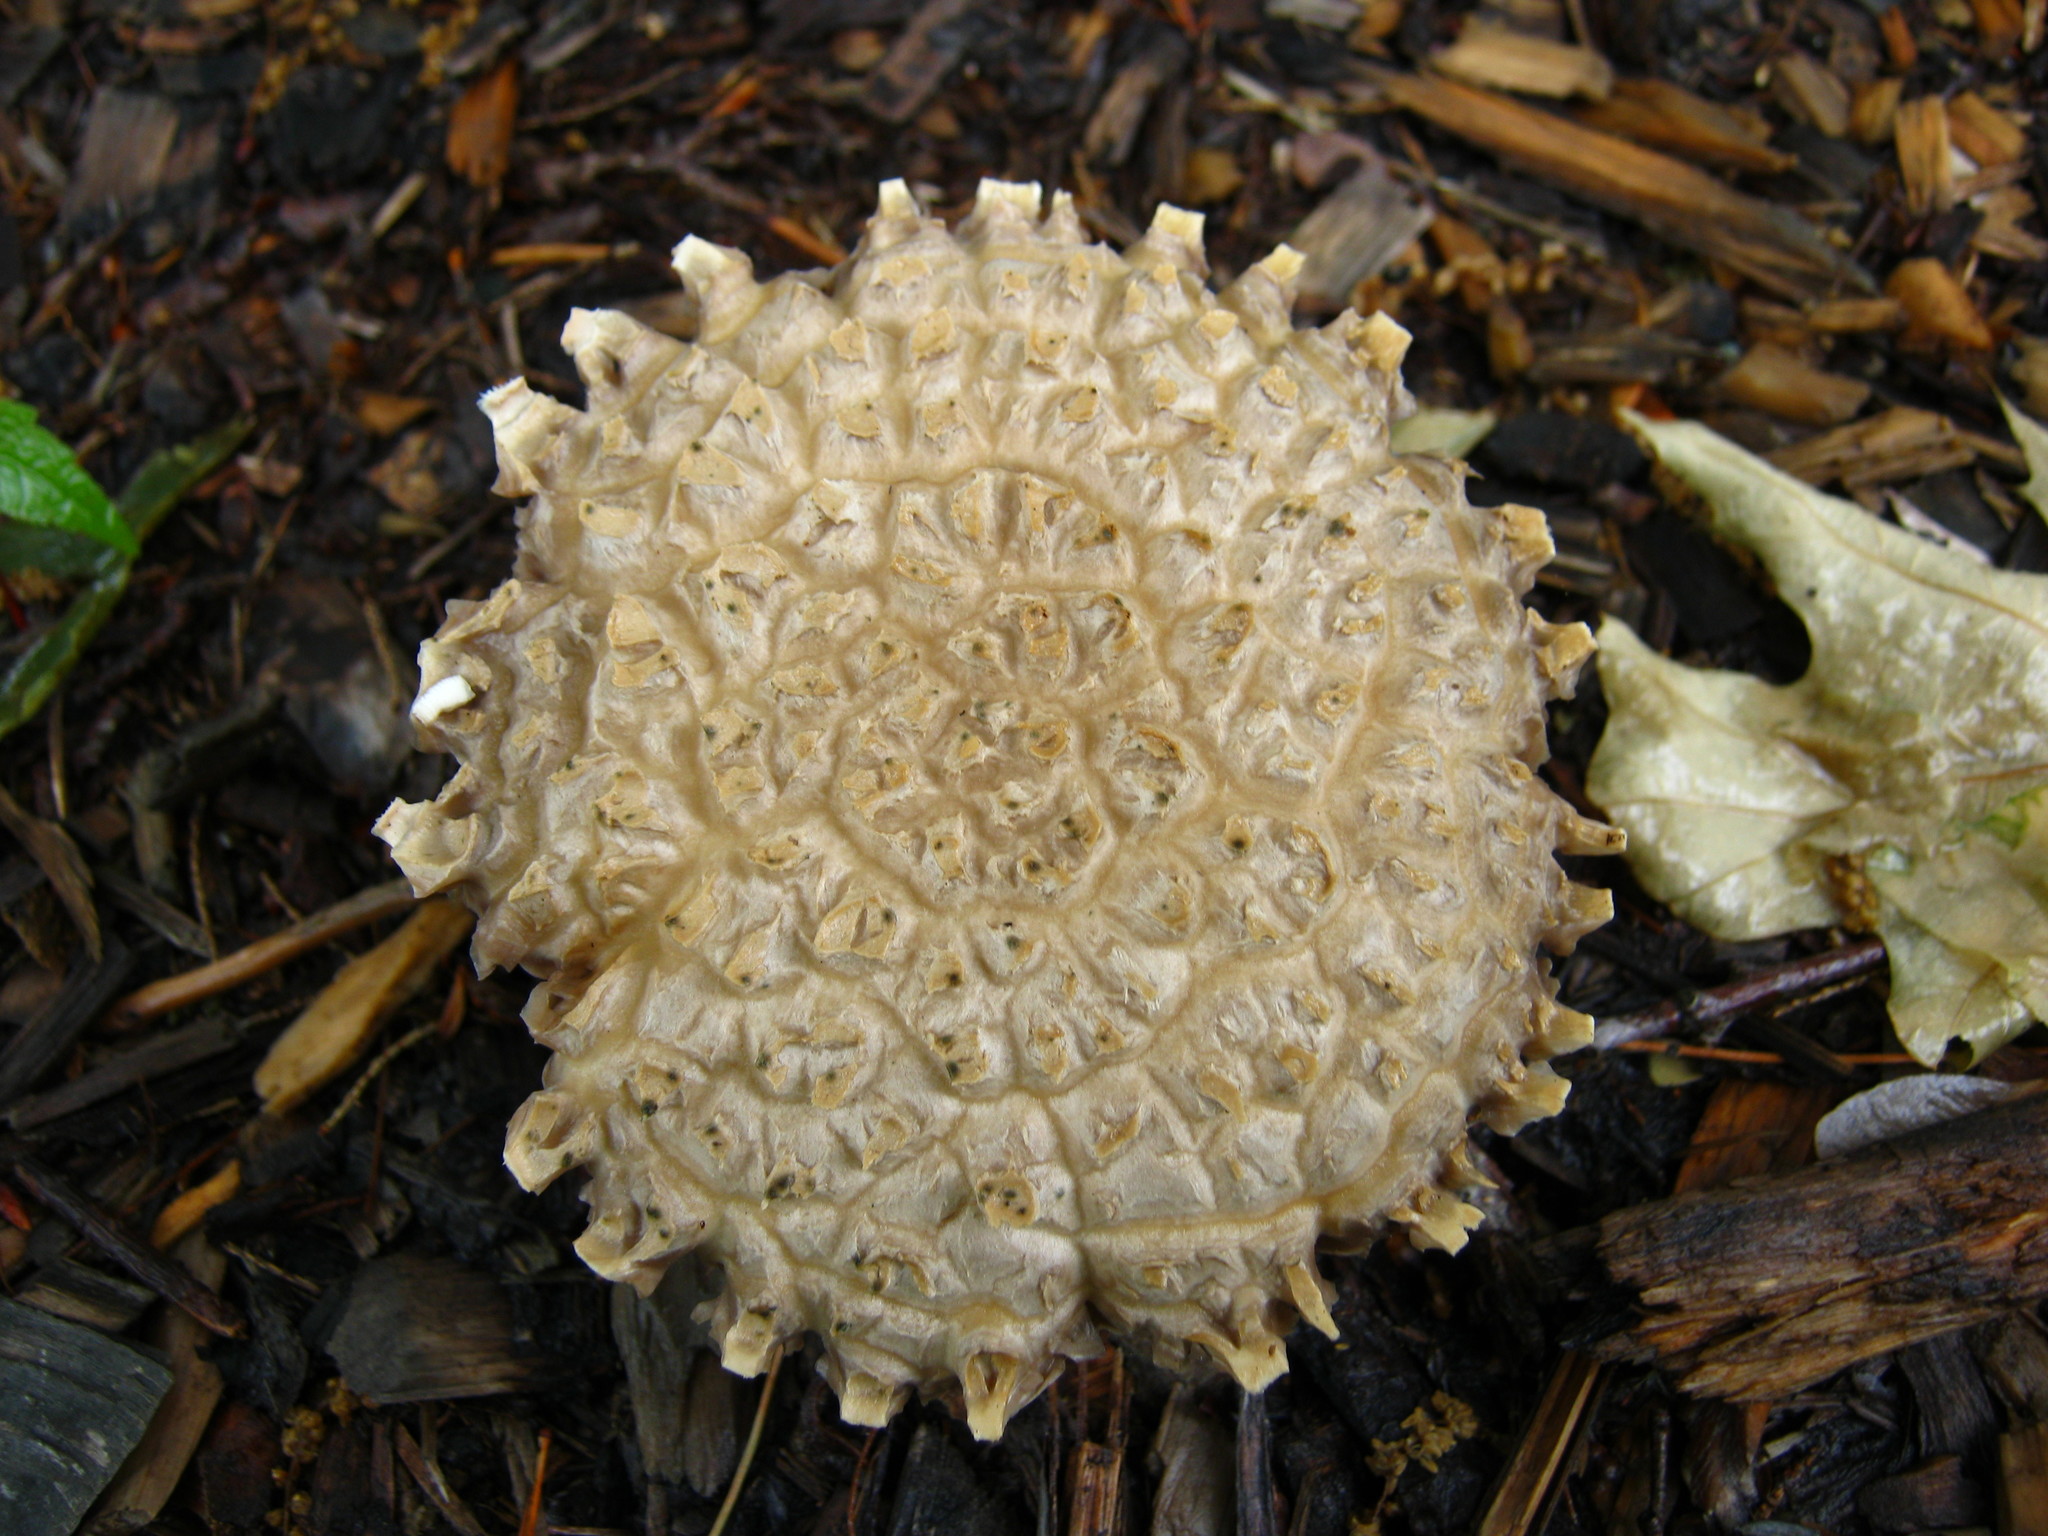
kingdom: Fungi
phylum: Basidiomycota
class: Agaricomycetes
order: Agaricales
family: Strophariaceae
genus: Stropharia
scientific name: Stropharia rugosoannulata
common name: Wine roundhead
